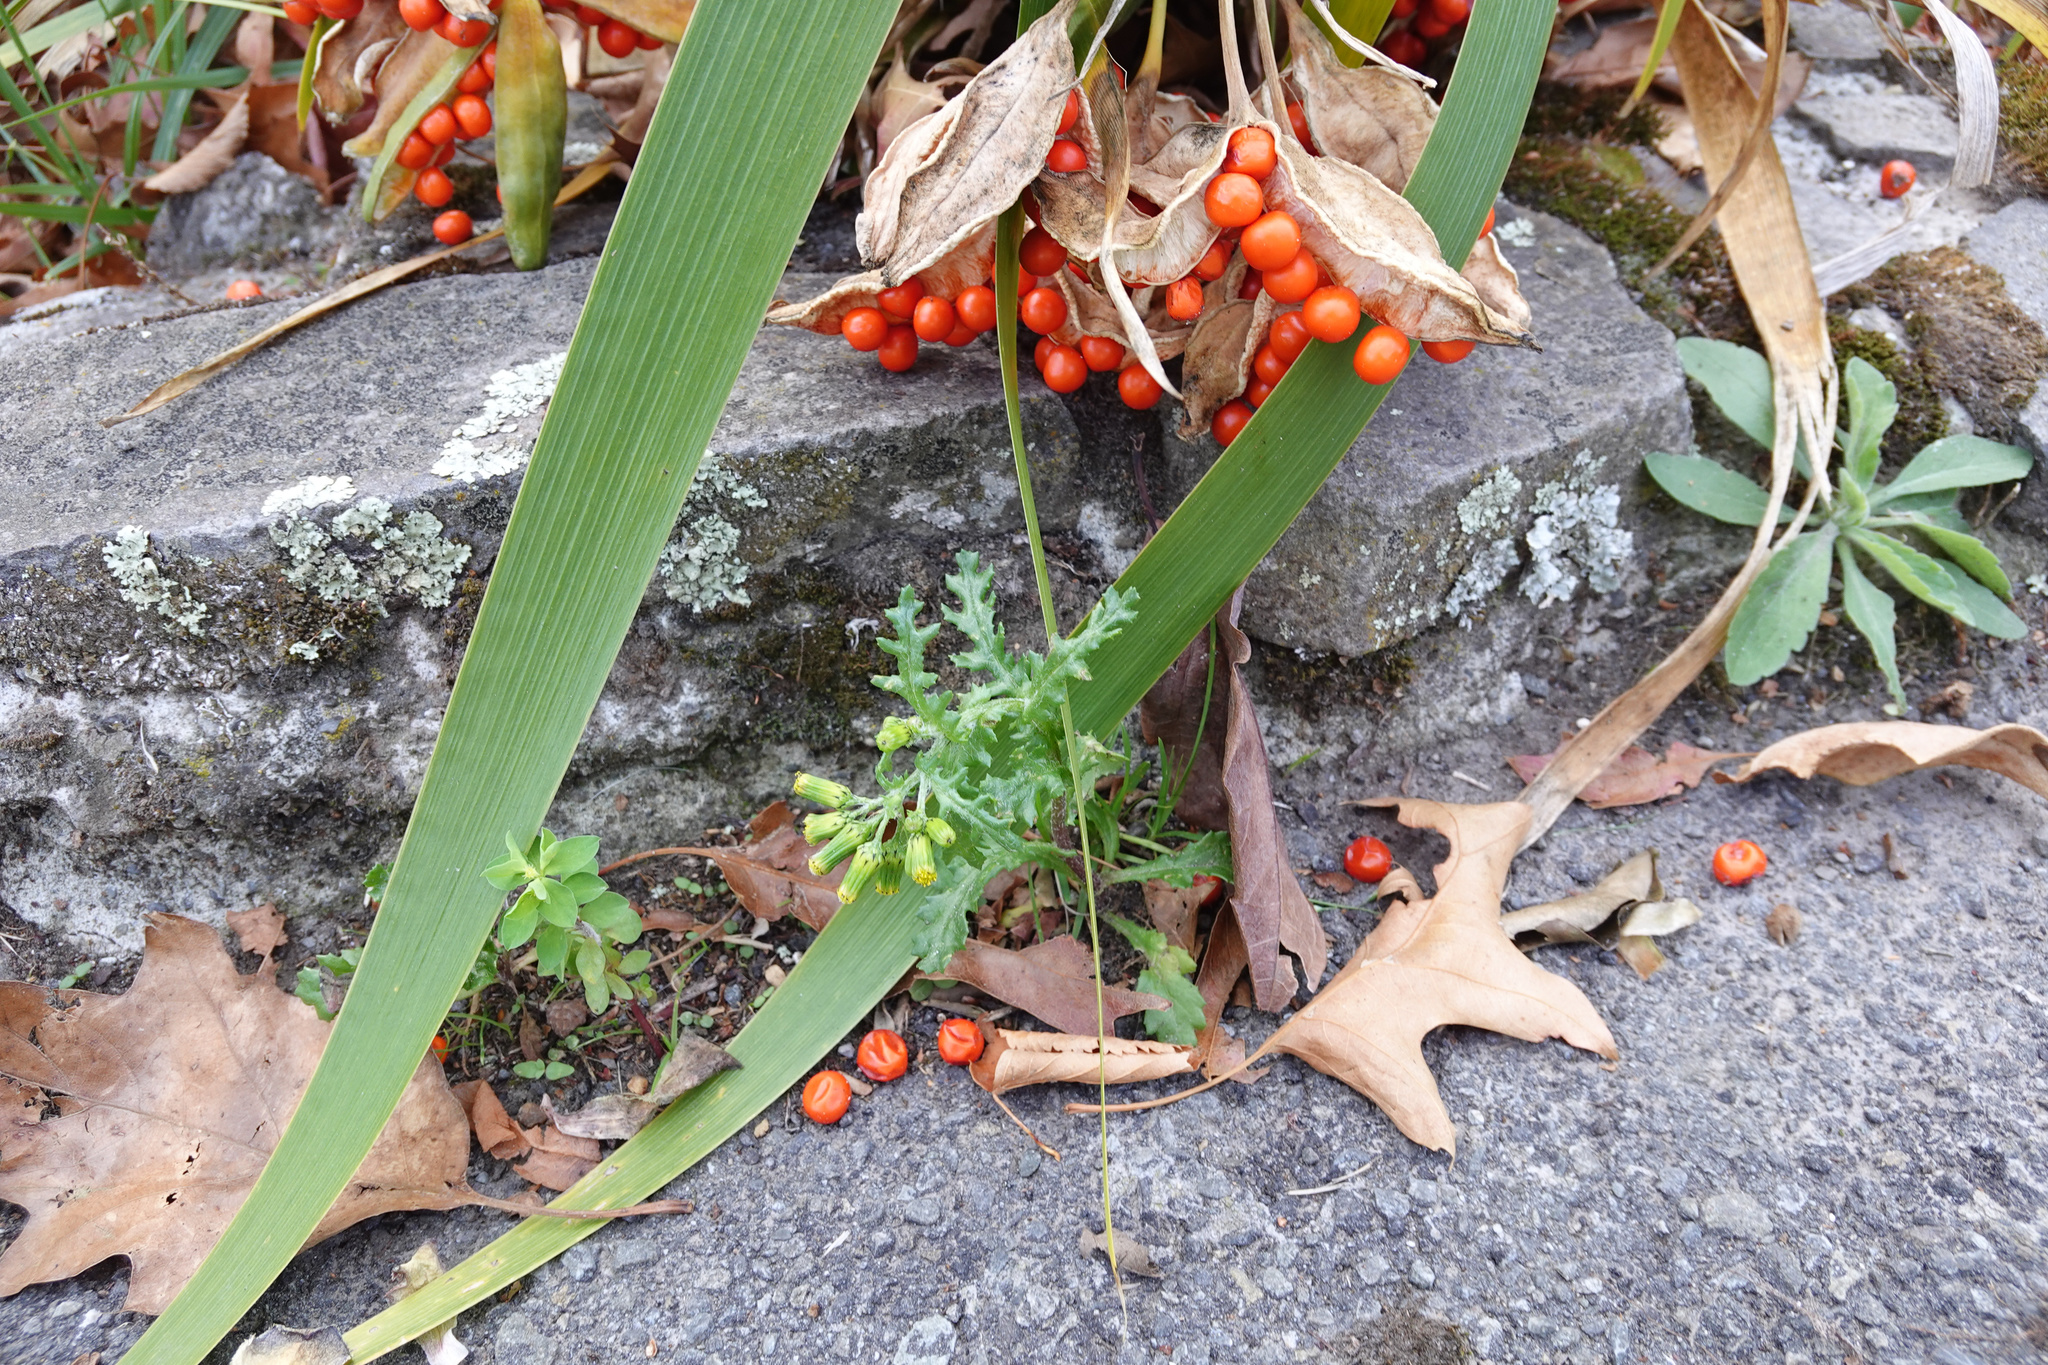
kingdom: Plantae
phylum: Tracheophyta
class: Magnoliopsida
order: Asterales
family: Asteraceae
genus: Senecio
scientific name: Senecio vulgaris
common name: Old-man-in-the-spring
